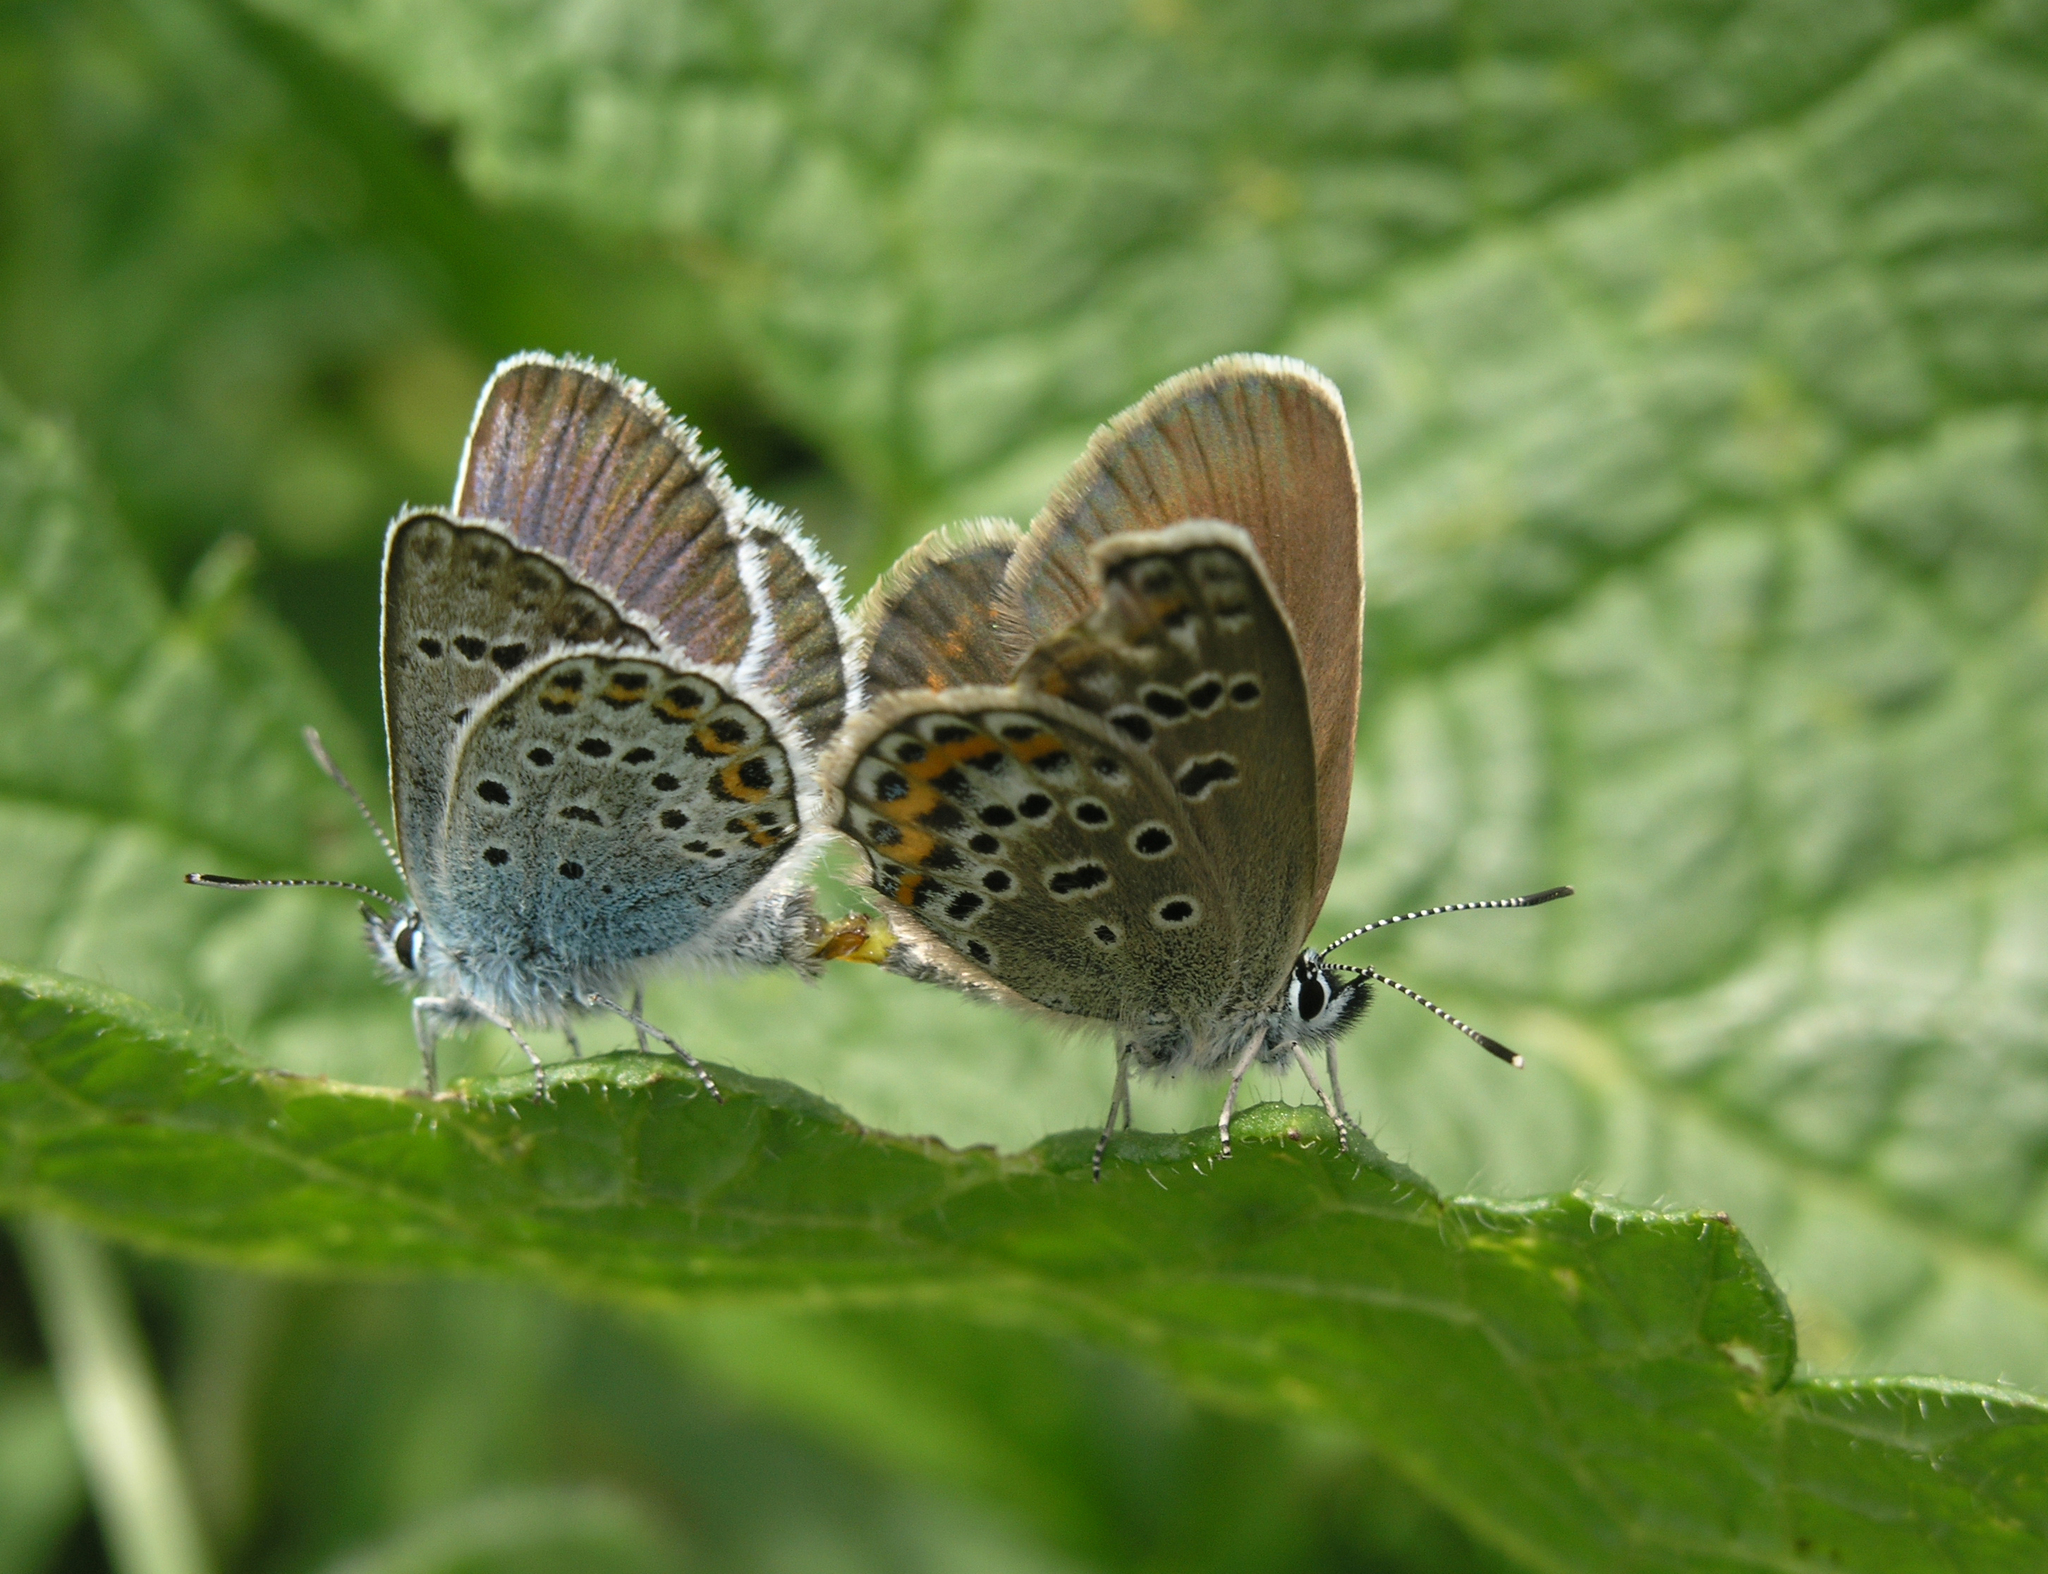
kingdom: Animalia
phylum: Arthropoda
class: Insecta
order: Lepidoptera
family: Lycaenidae
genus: Plebejus
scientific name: Plebejus argus
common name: Silver-studded blue
